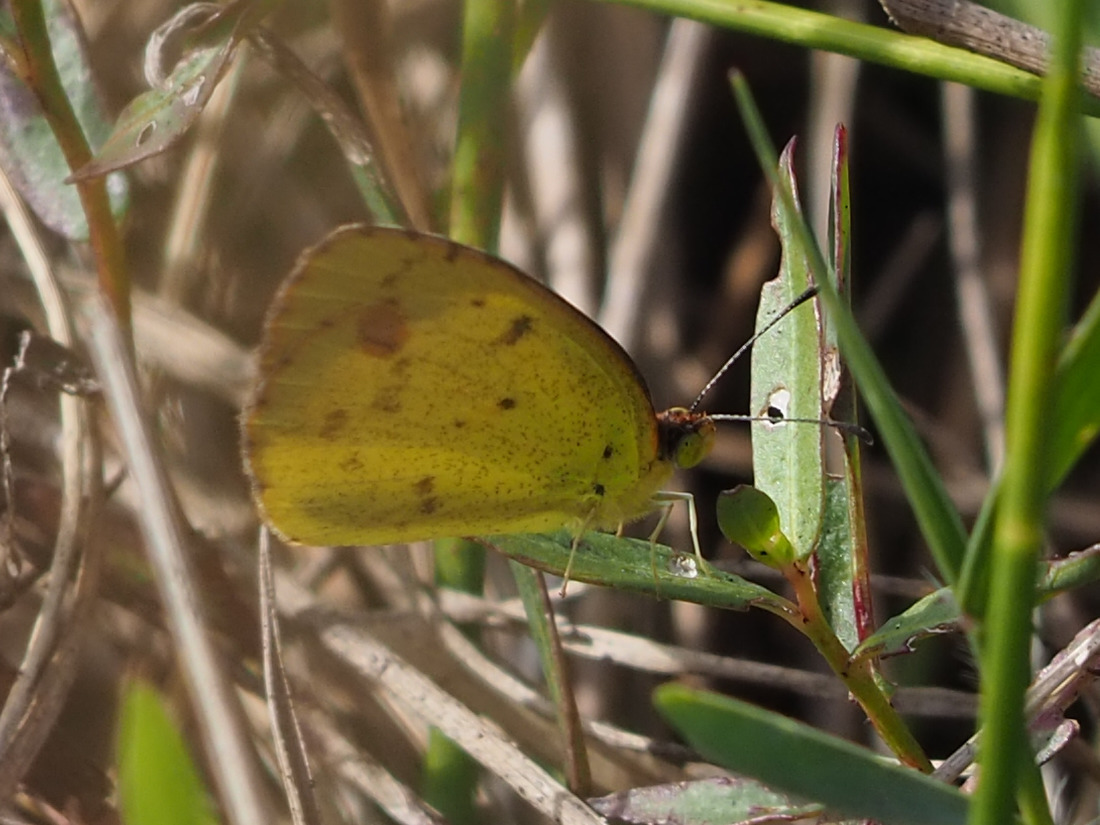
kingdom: Animalia
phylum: Arthropoda
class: Insecta
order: Lepidoptera
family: Pieridae
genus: Pyrisitia
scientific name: Pyrisitia lisa
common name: Little yellow
